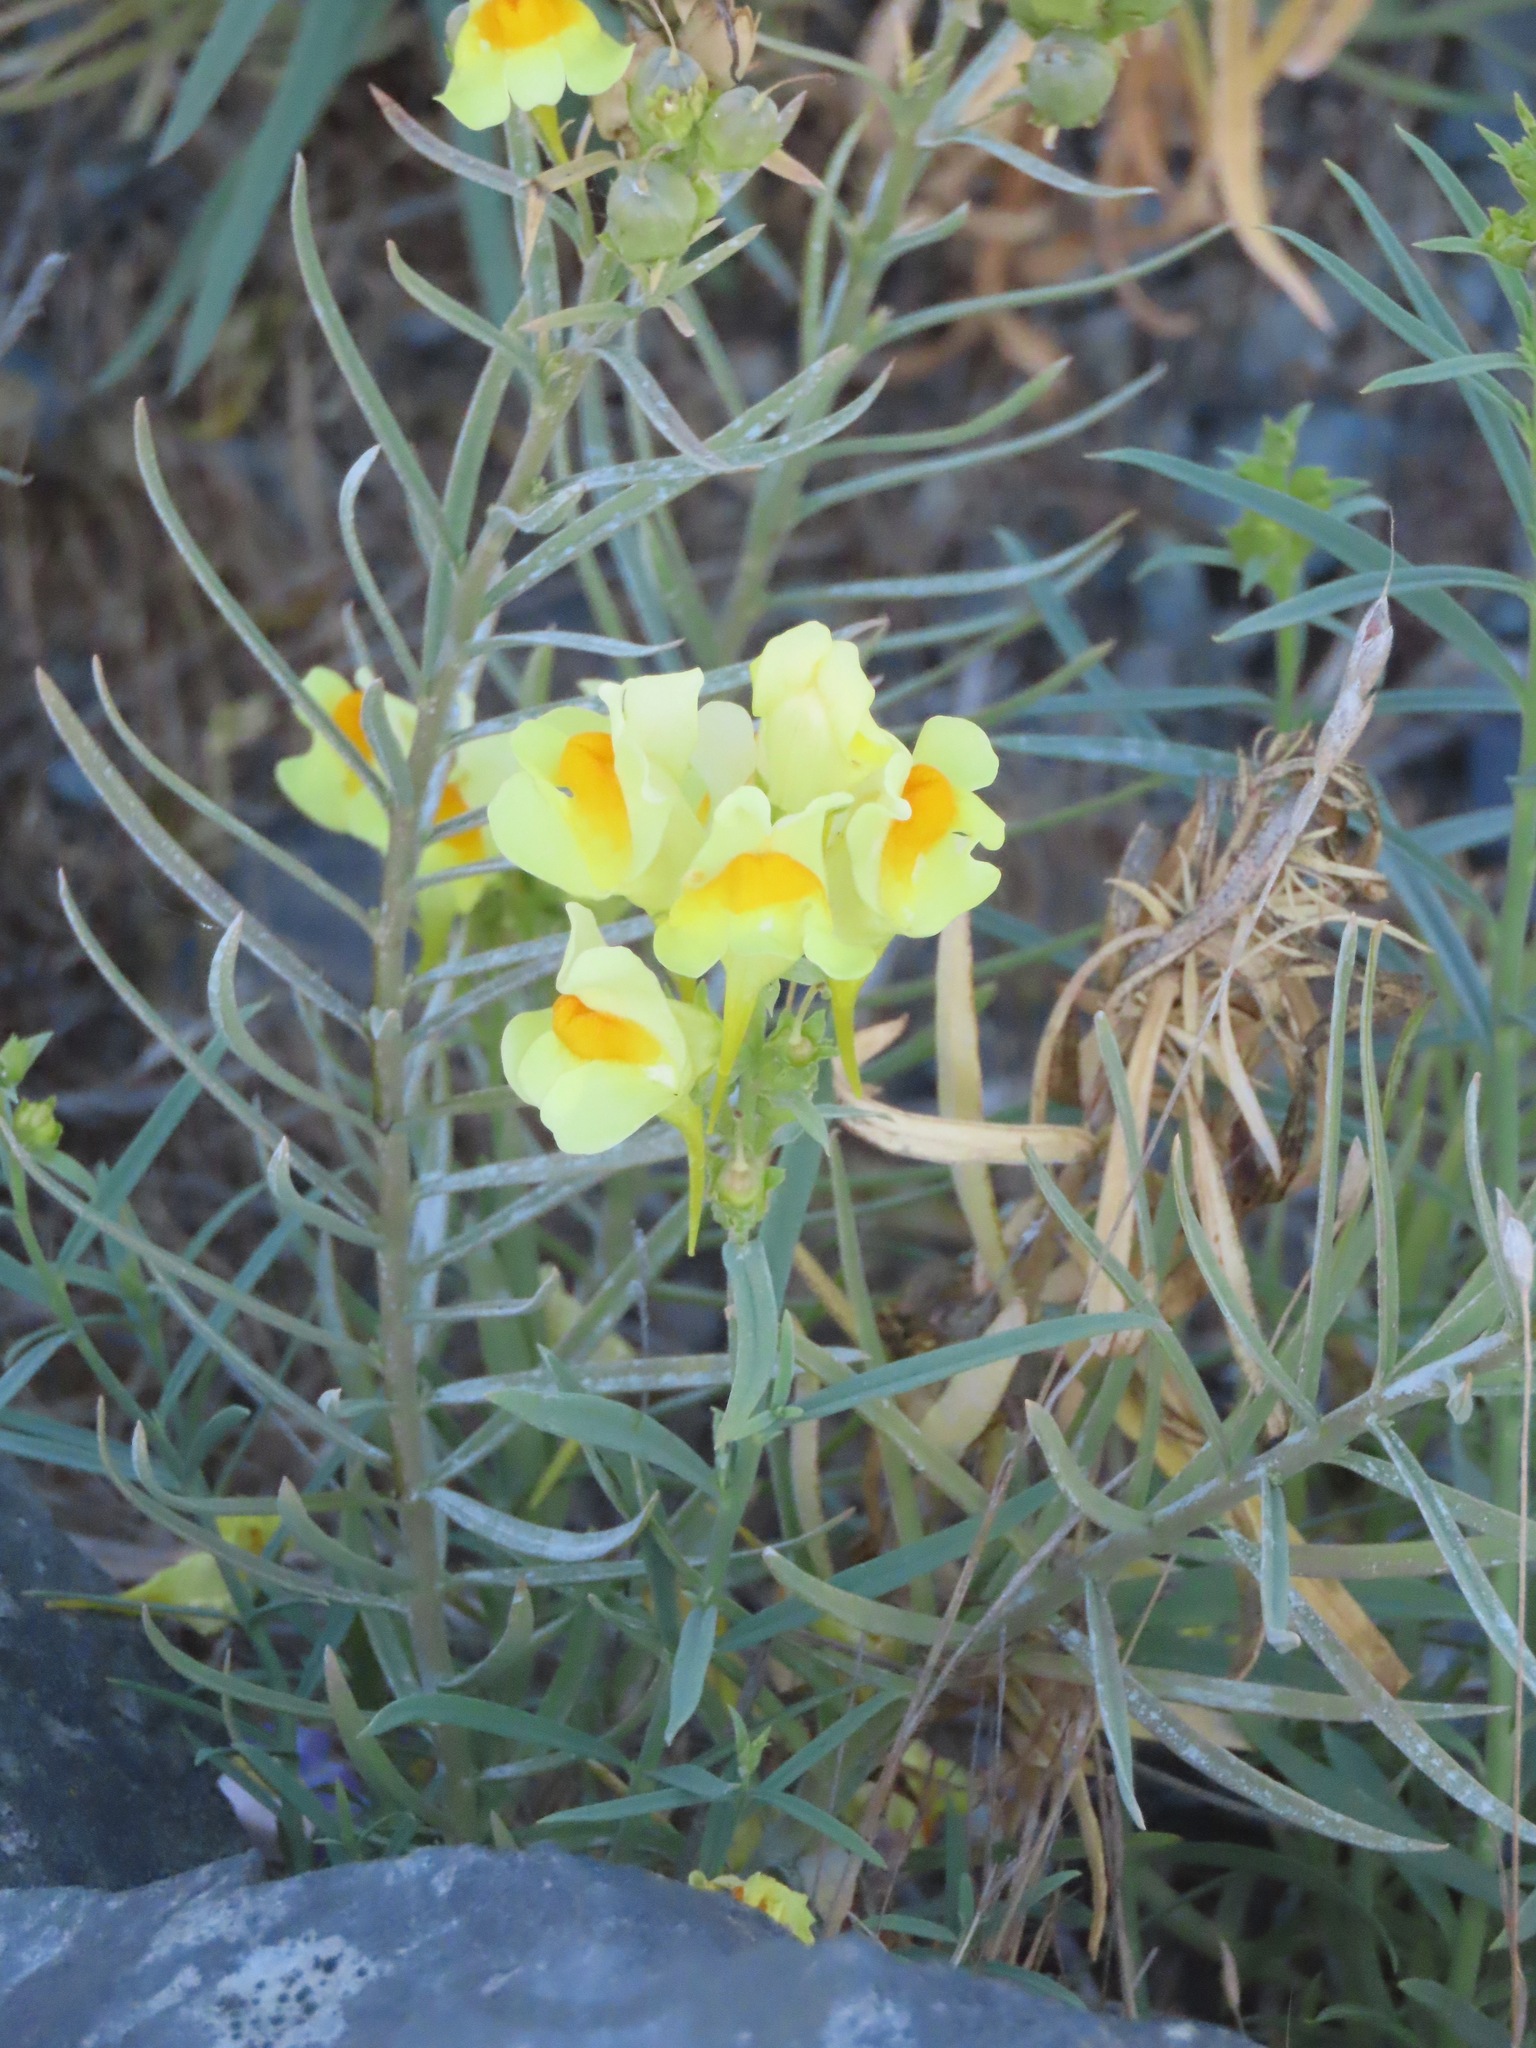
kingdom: Plantae
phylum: Tracheophyta
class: Magnoliopsida
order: Lamiales
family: Plantaginaceae
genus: Linaria
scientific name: Linaria vulgaris
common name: Butter and eggs
